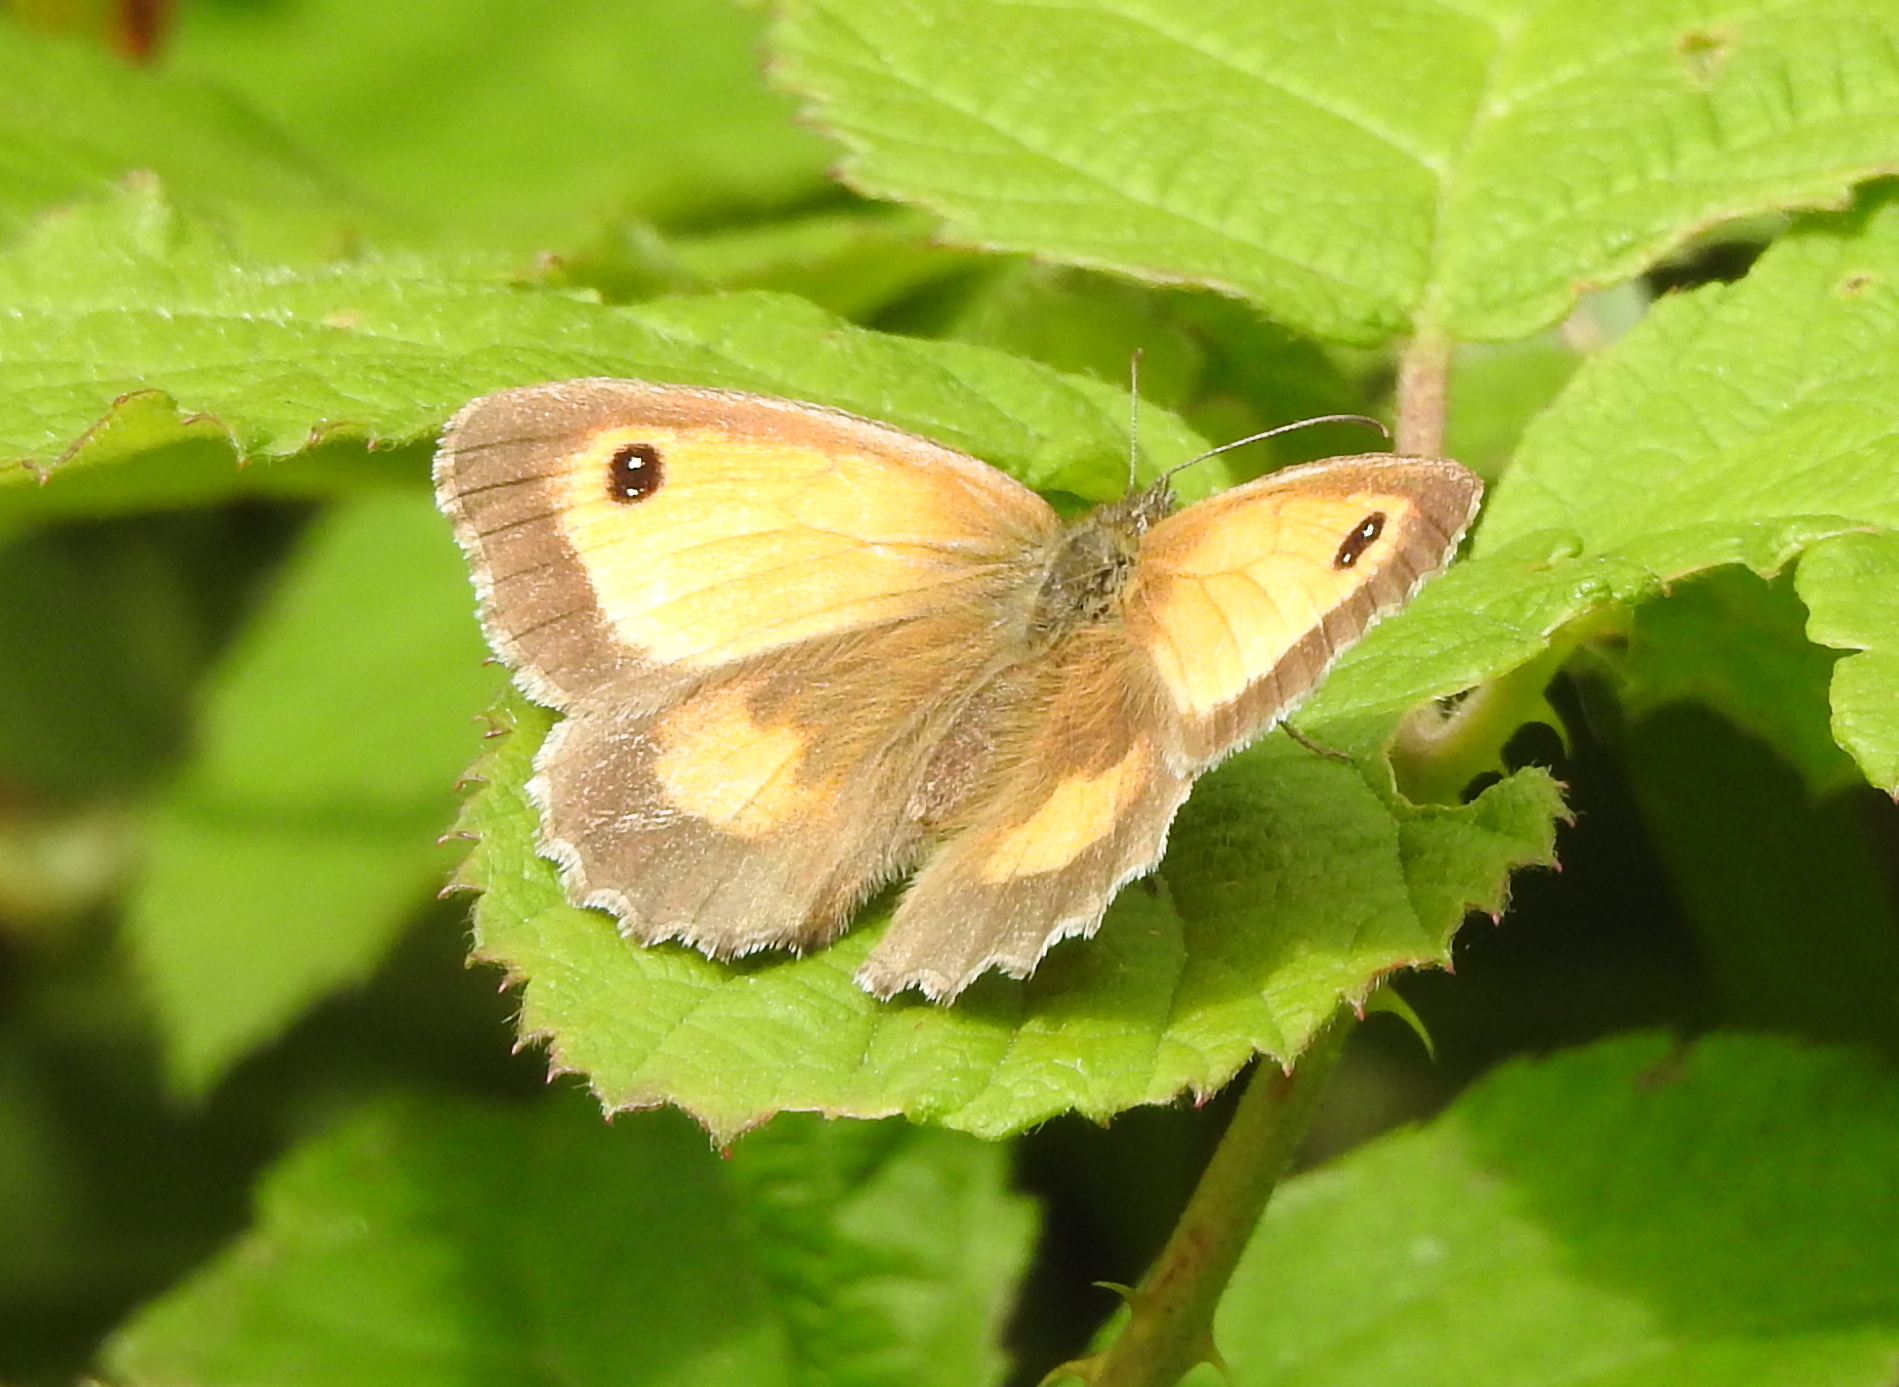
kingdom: Animalia
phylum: Arthropoda
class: Insecta
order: Lepidoptera
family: Nymphalidae
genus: Pyronia
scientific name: Pyronia tithonus
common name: Gatekeeper
